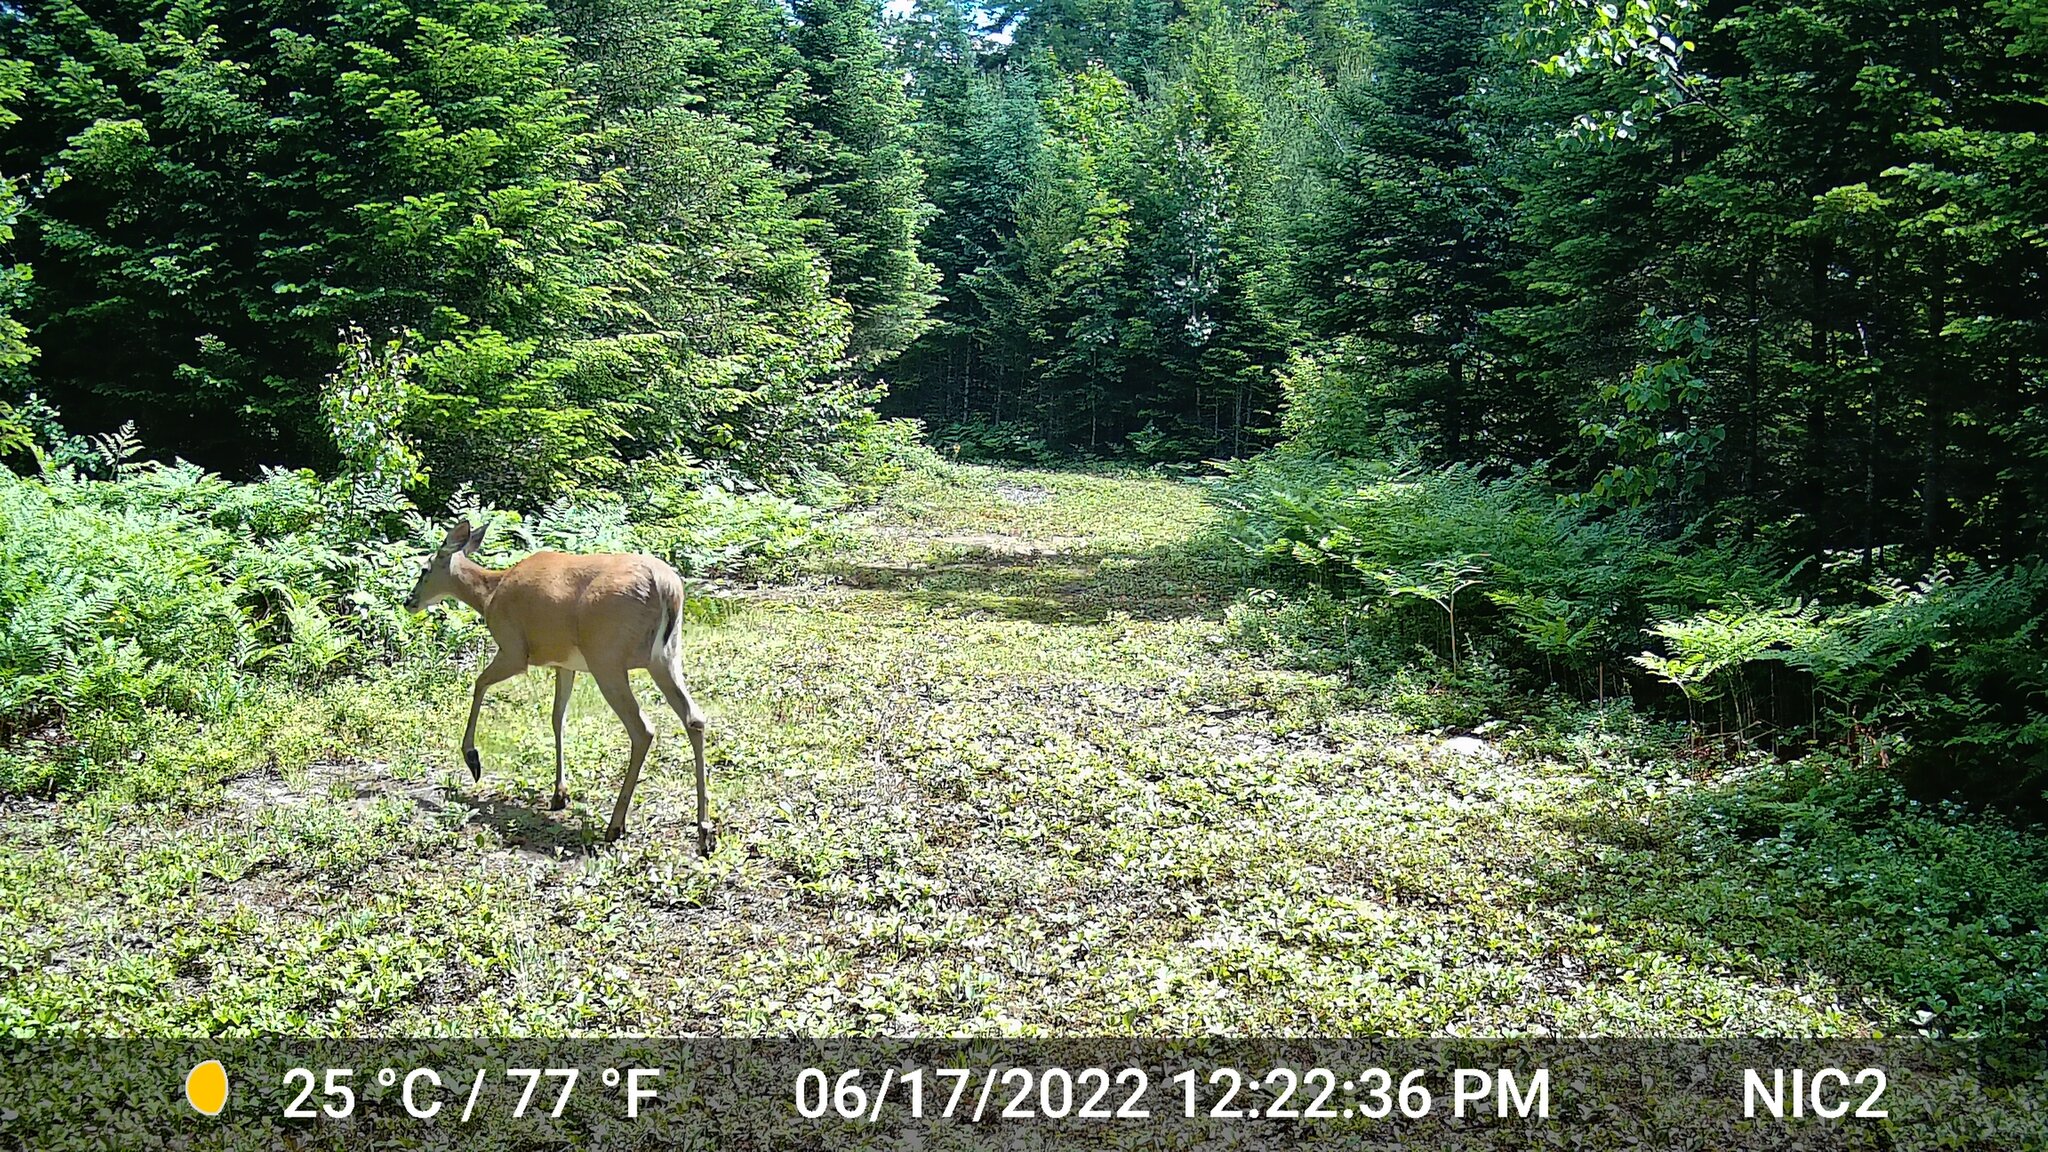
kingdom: Animalia
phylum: Chordata
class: Mammalia
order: Artiodactyla
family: Cervidae
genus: Odocoileus
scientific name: Odocoileus virginianus
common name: White-tailed deer
